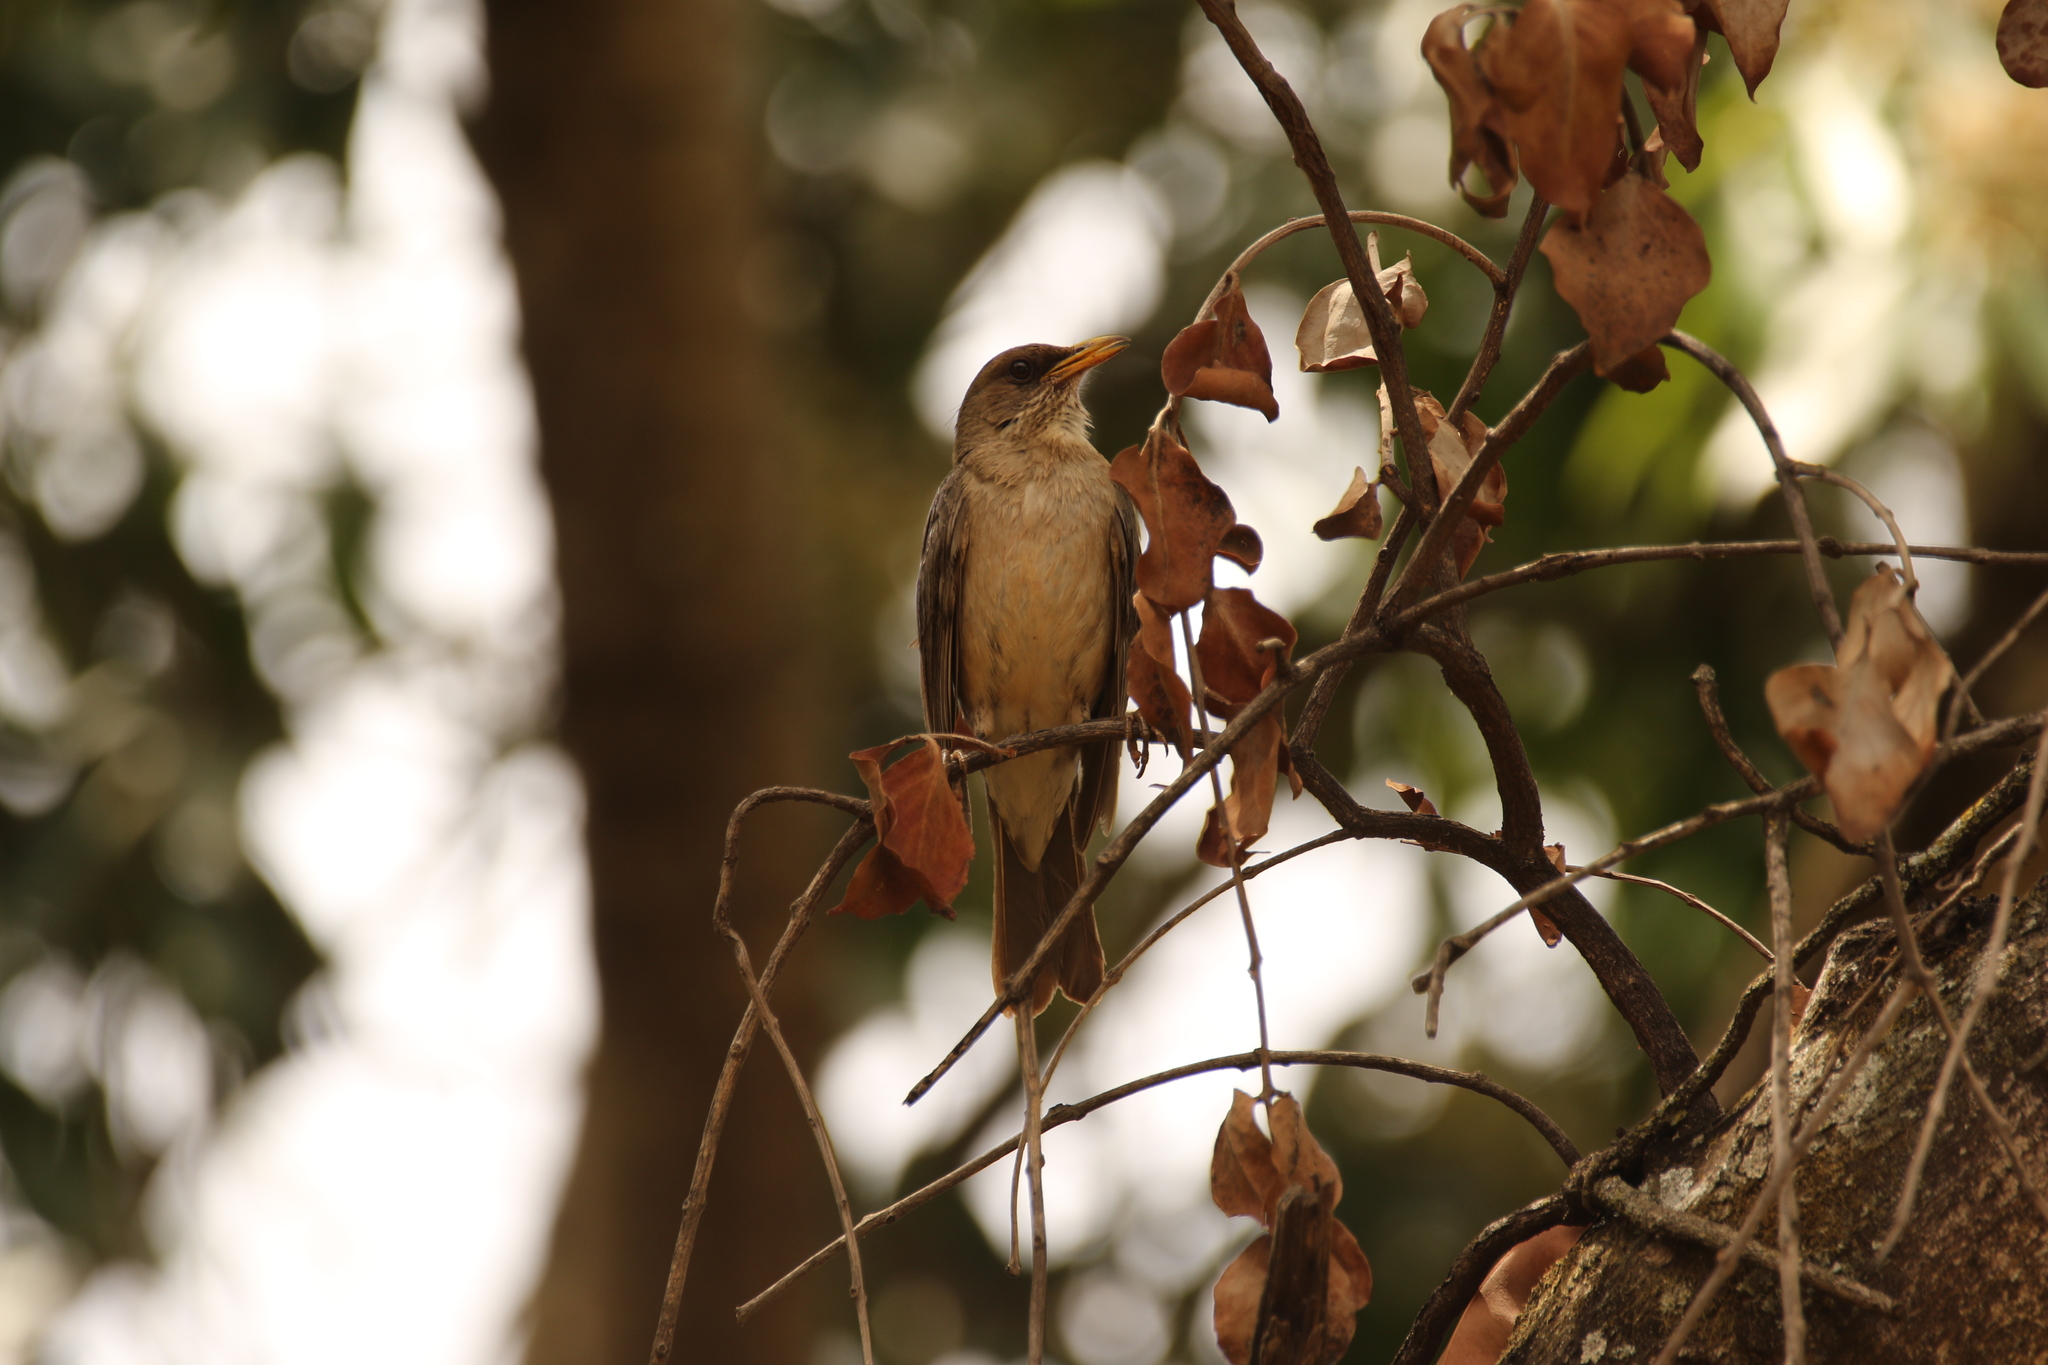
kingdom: Animalia
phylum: Chordata
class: Aves
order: Passeriformes
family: Turdidae
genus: Turdus
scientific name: Turdus amaurochalinus
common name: Creamy-bellied thrush
